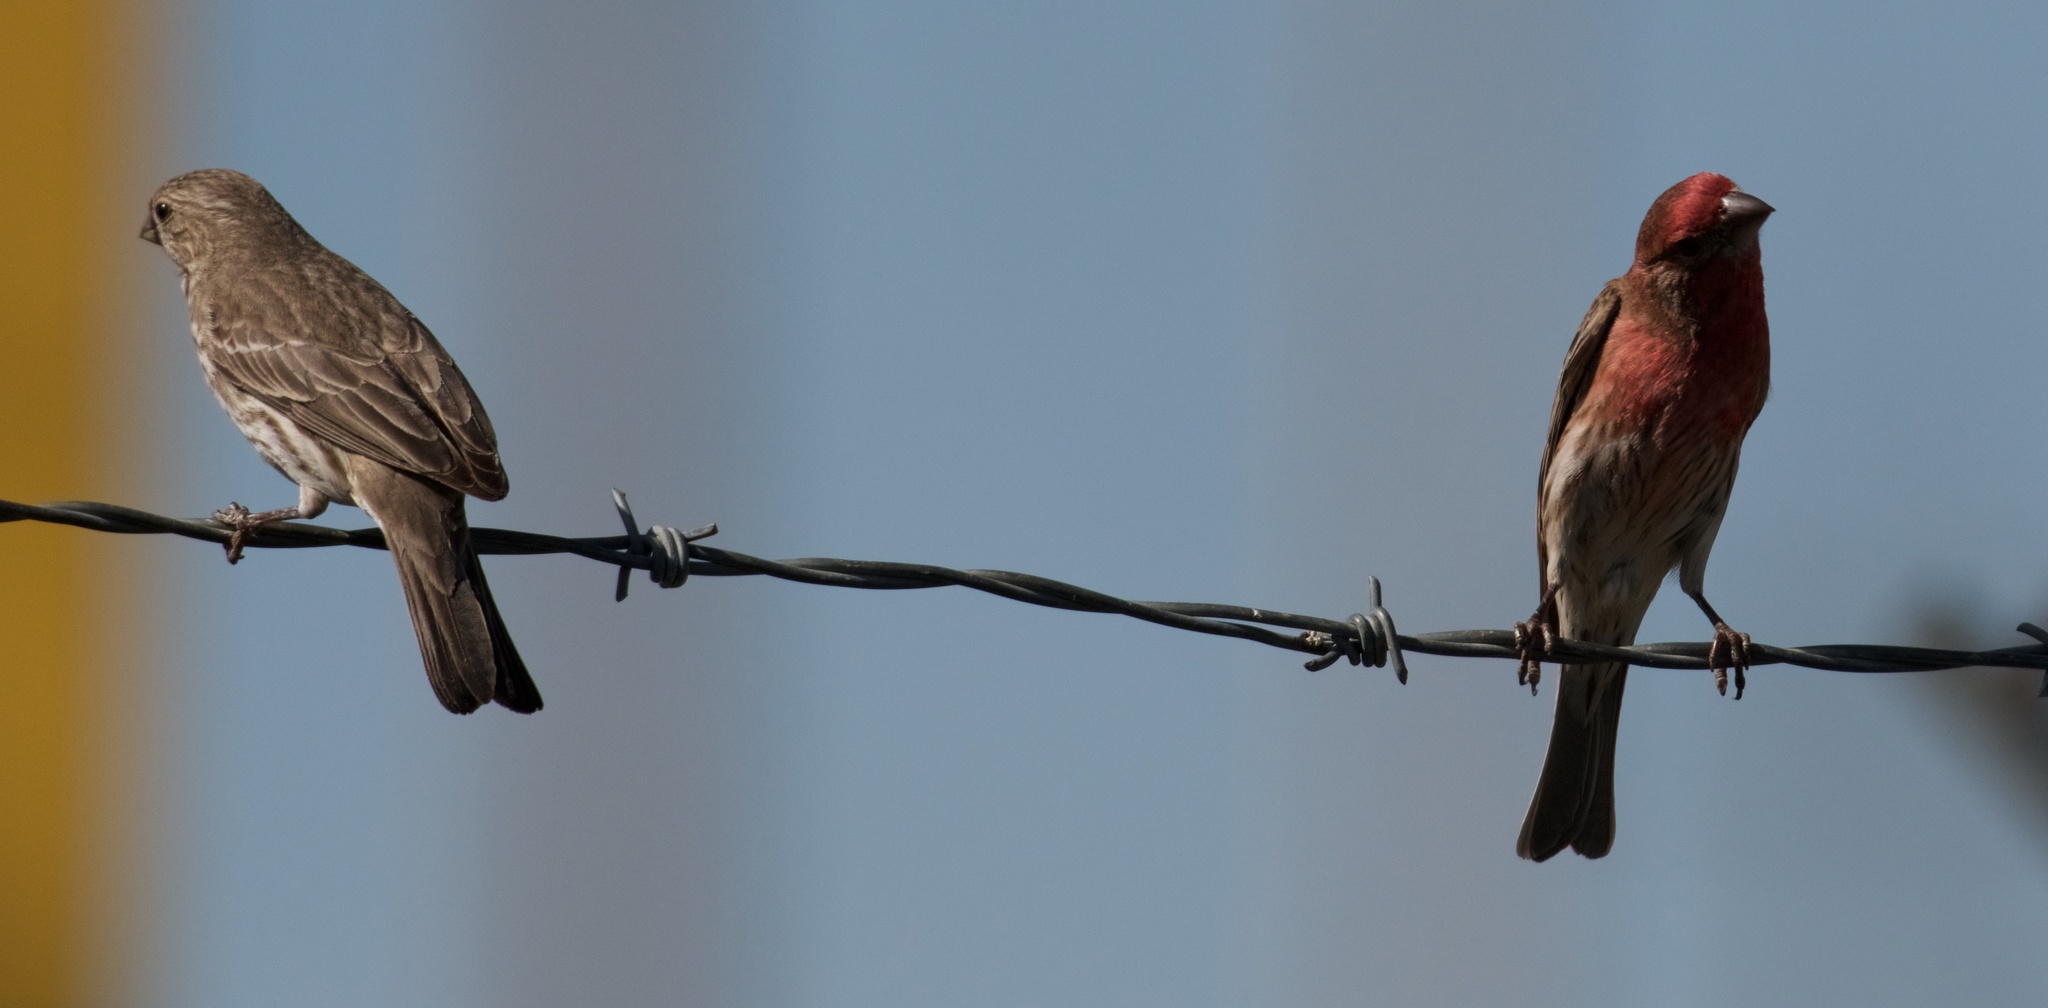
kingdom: Animalia
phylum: Chordata
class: Aves
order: Passeriformes
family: Fringillidae
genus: Haemorhous
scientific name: Haemorhous mexicanus
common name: House finch
